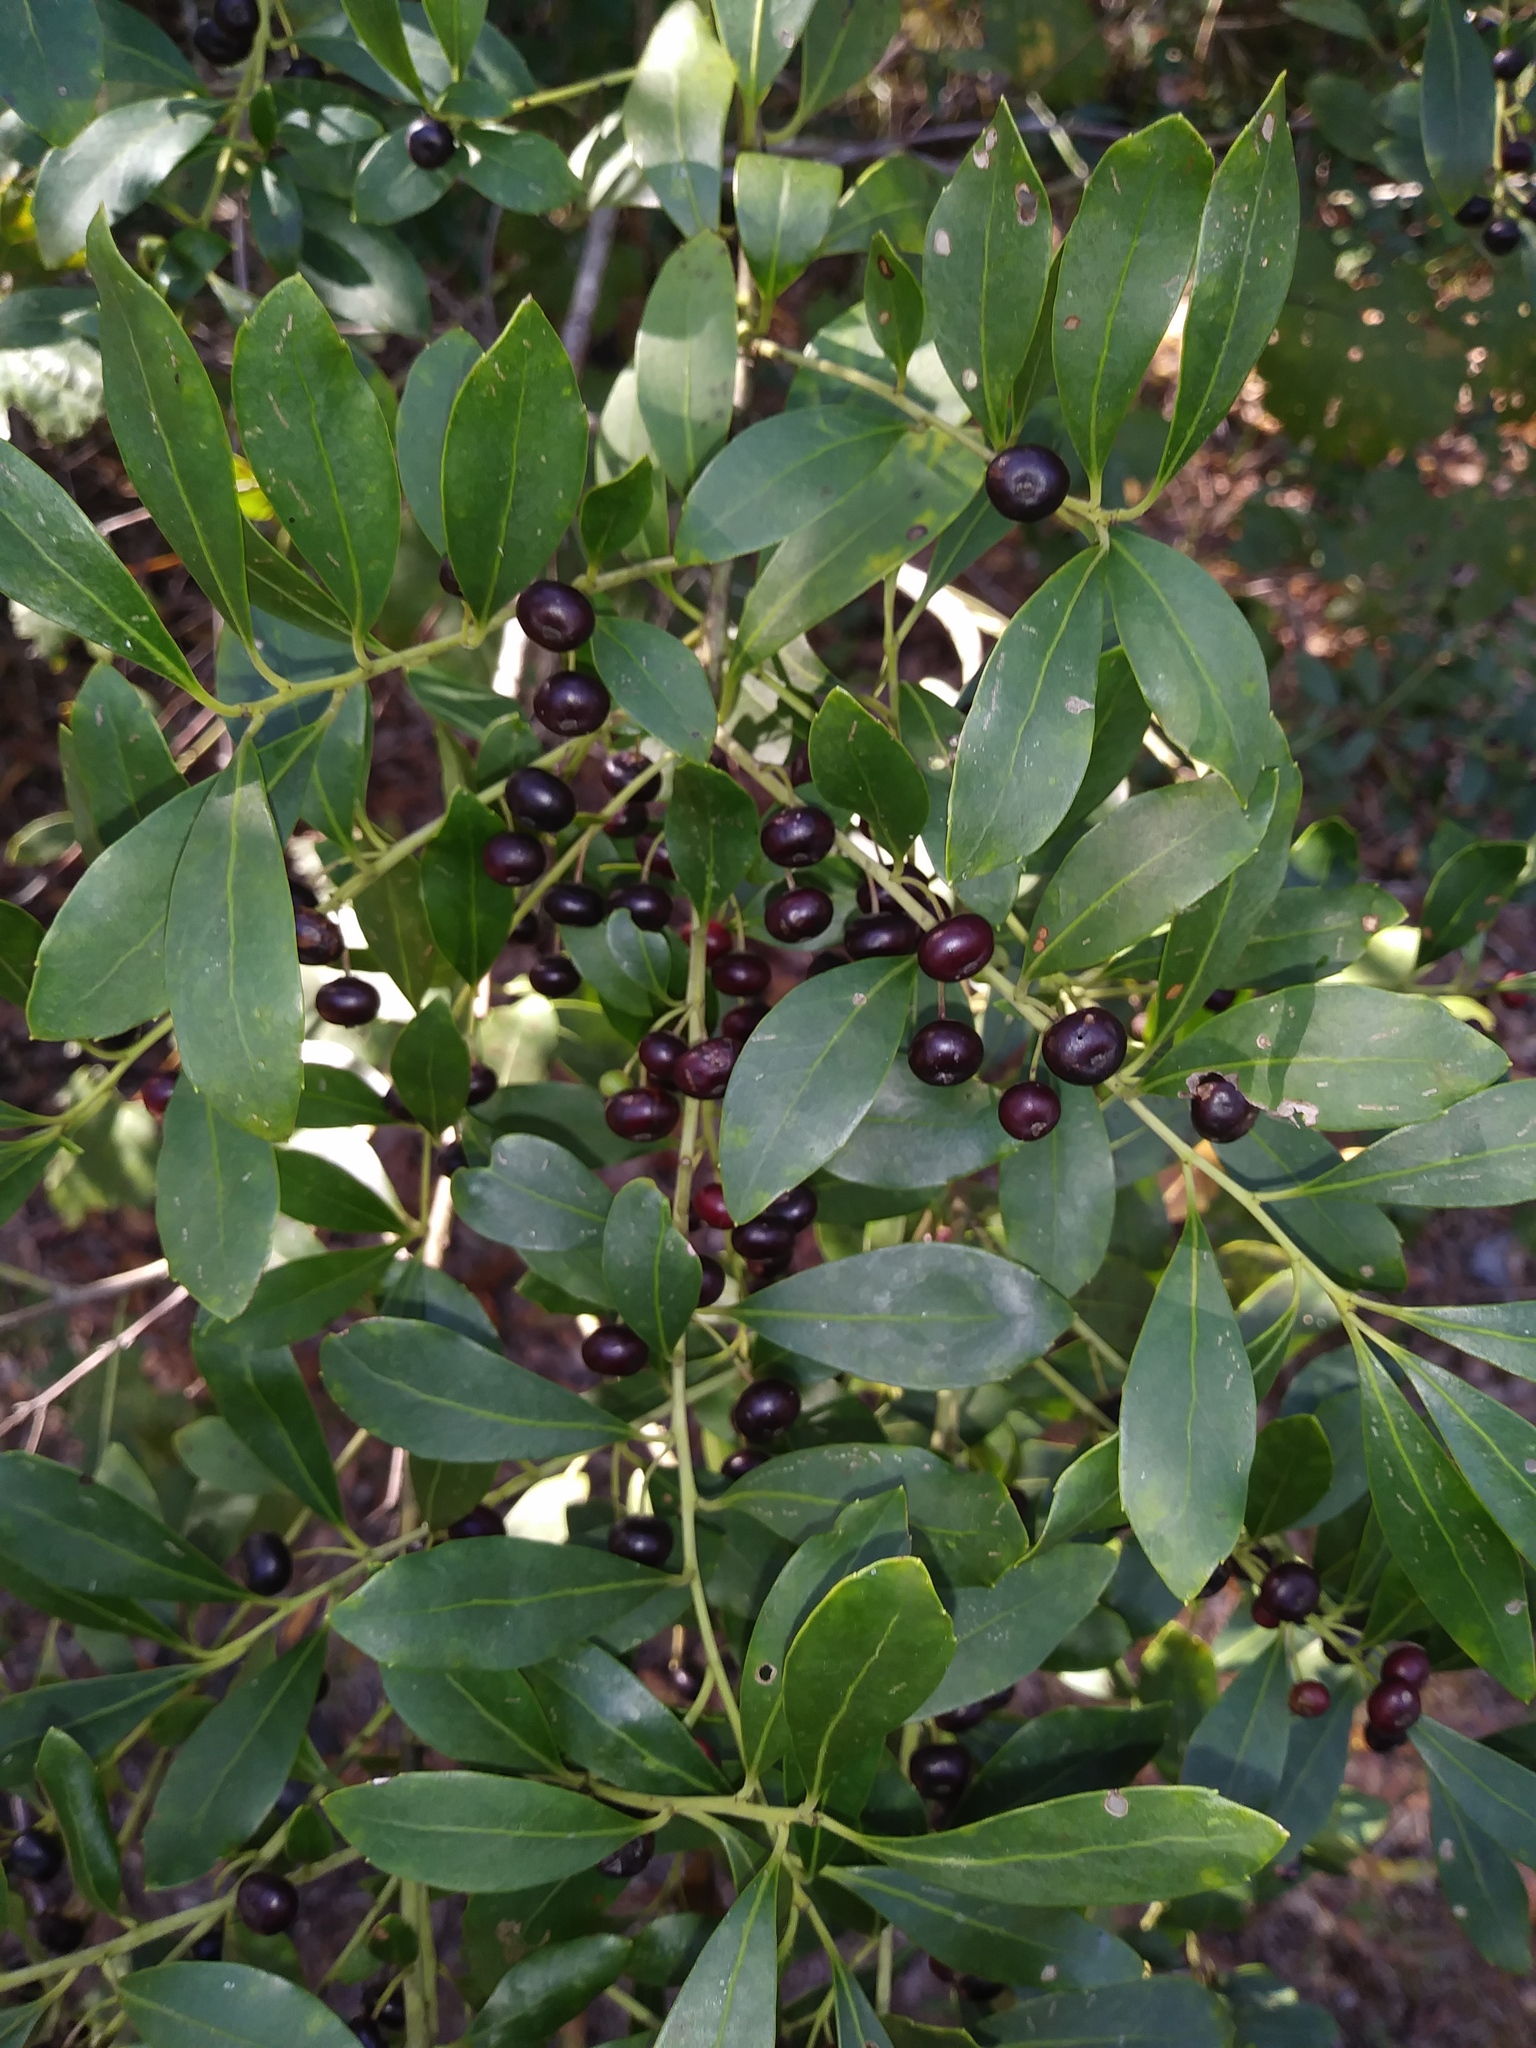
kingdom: Plantae
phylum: Tracheophyta
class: Magnoliopsida
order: Aquifoliales
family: Aquifoliaceae
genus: Ilex
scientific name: Ilex glabra
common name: Bitter gallberry
